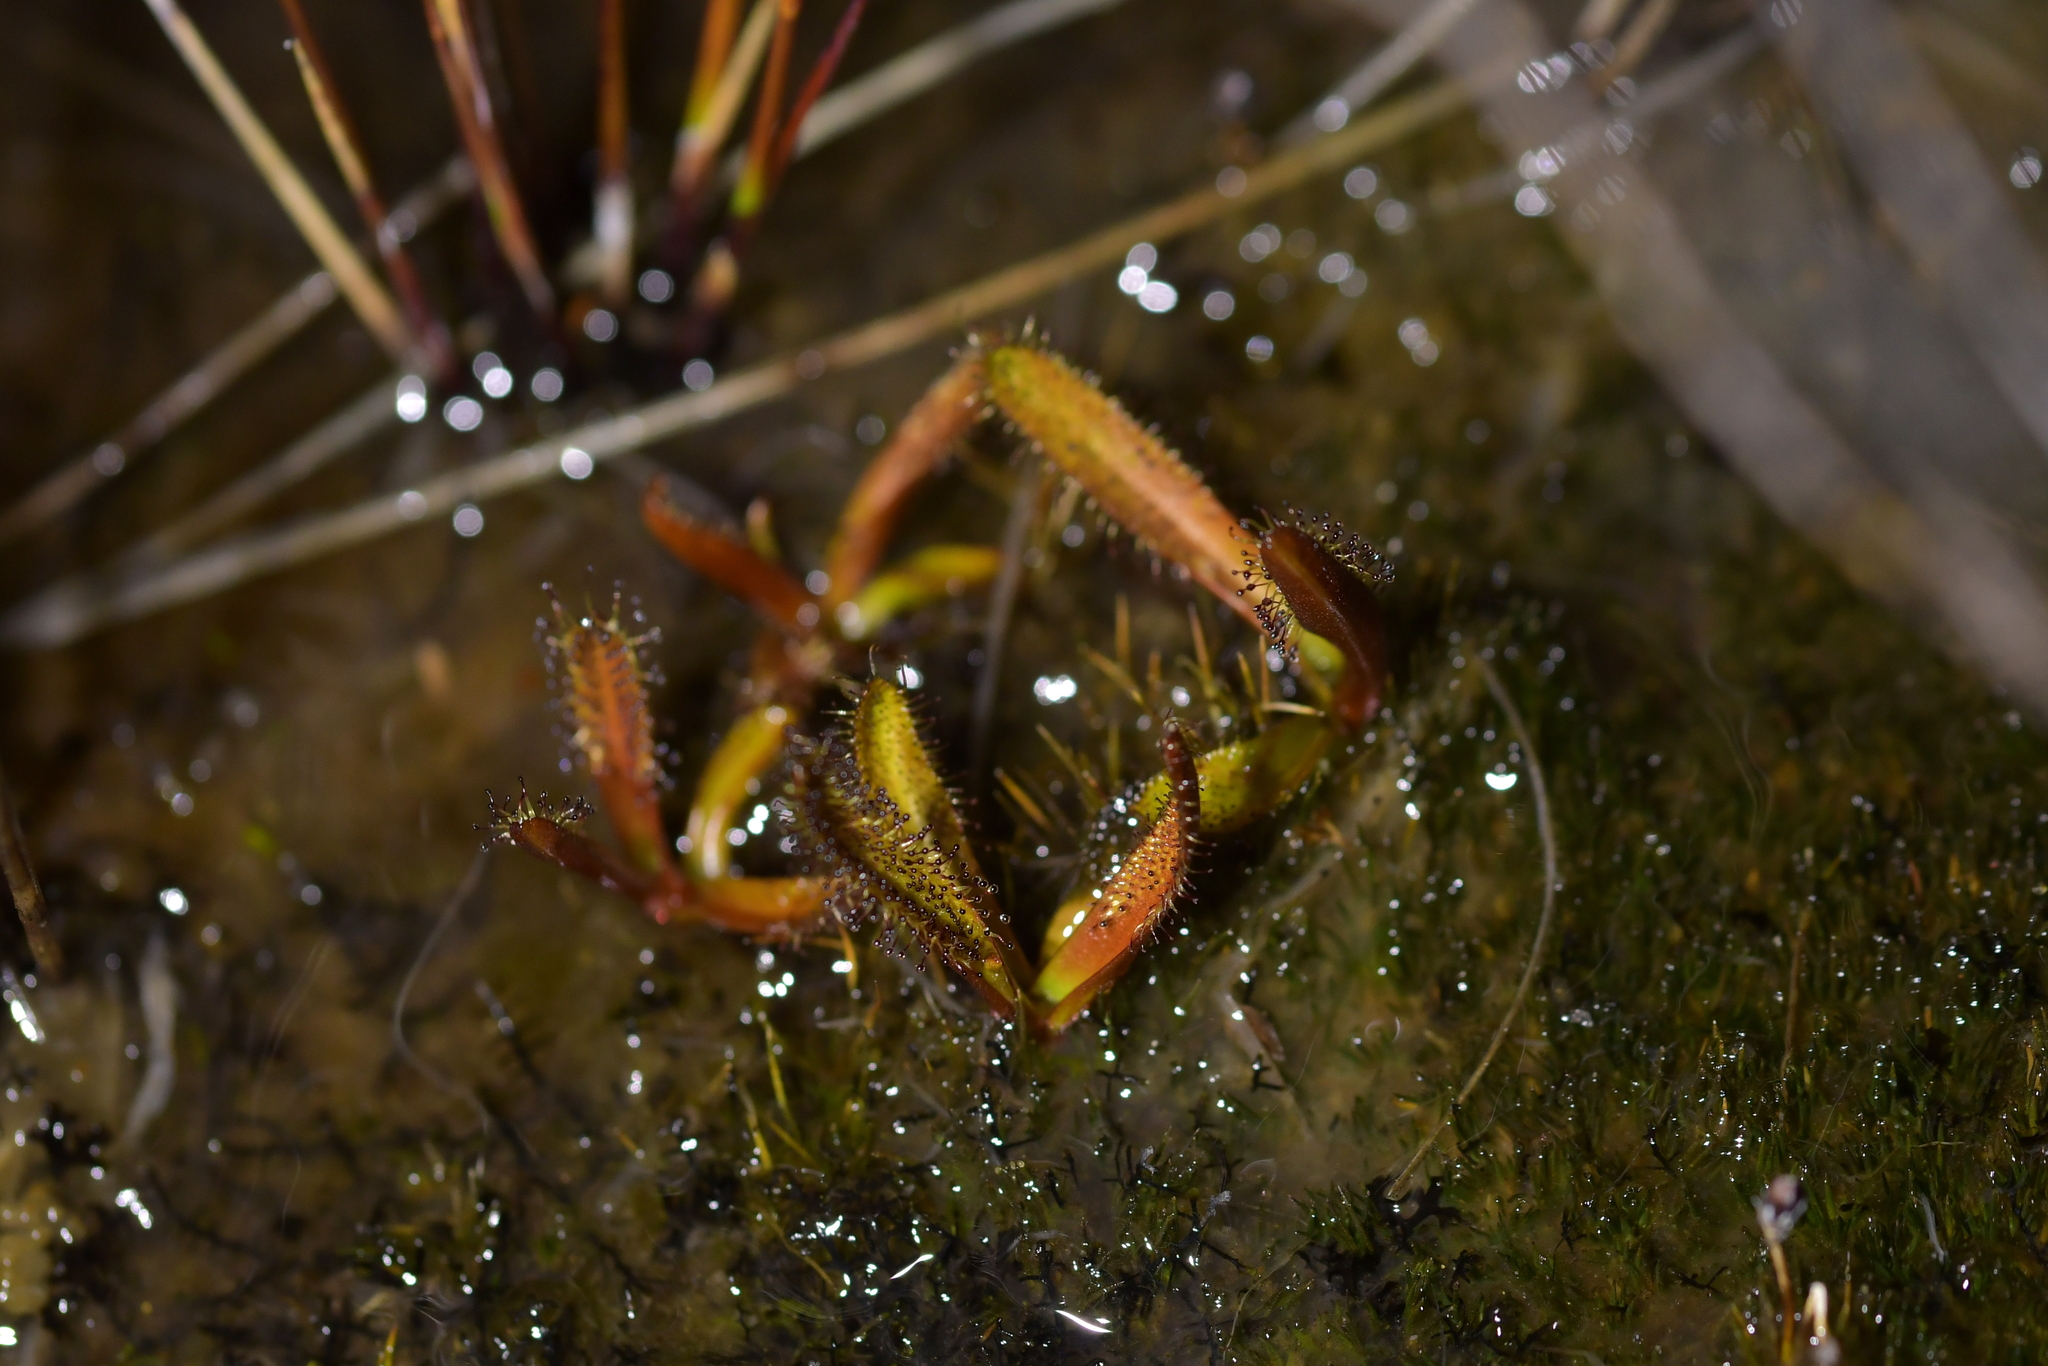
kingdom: Plantae
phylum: Tracheophyta
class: Magnoliopsida
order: Caryophyllales
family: Droseraceae
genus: Drosera
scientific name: Drosera arcturi
